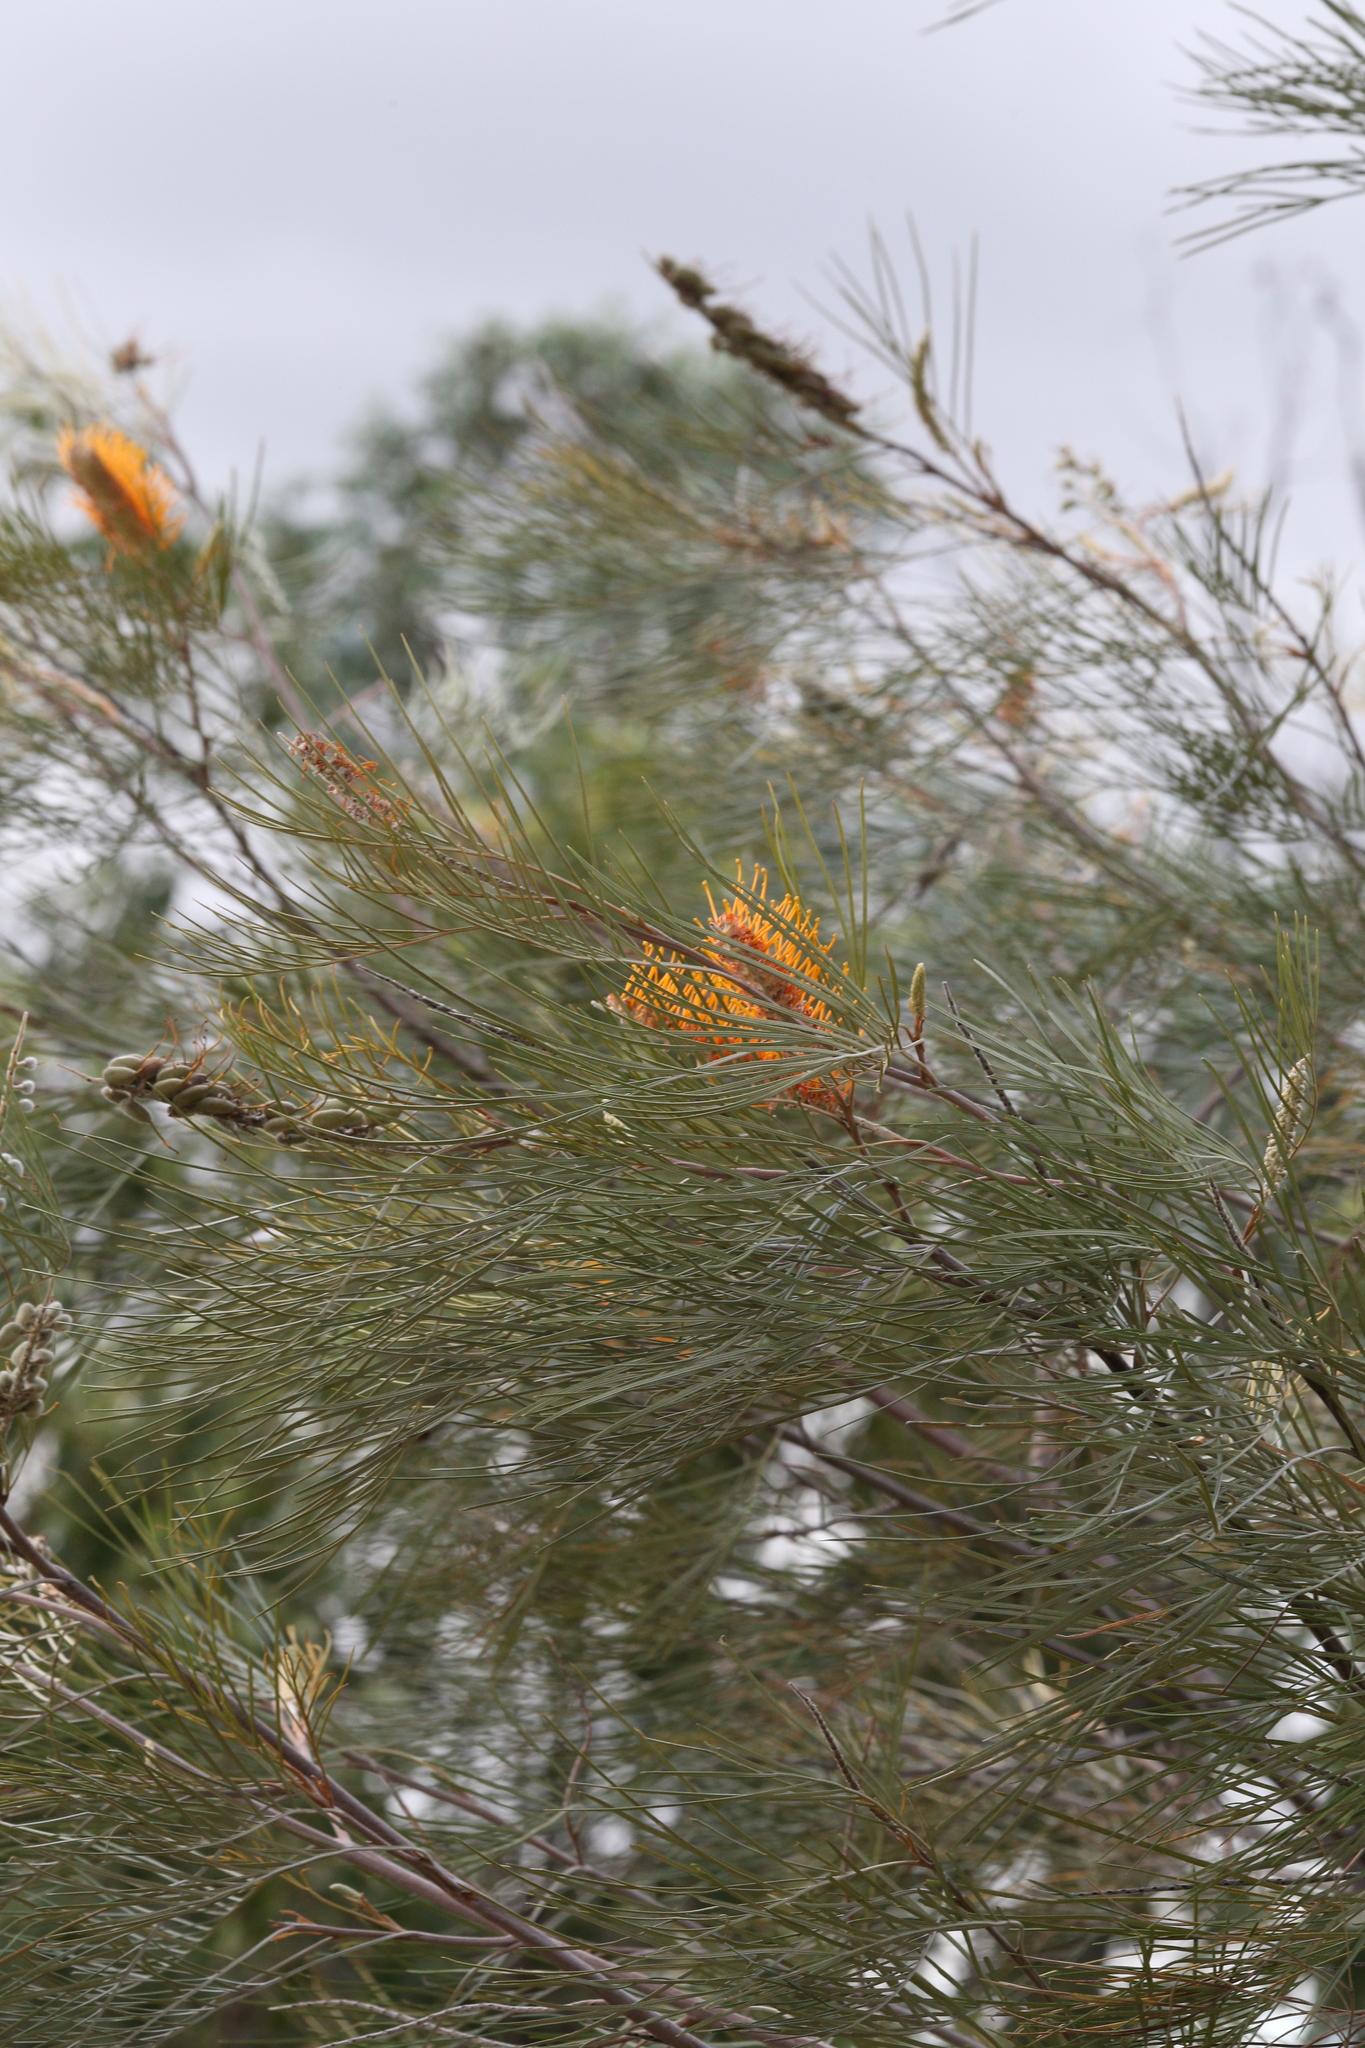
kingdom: Plantae
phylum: Tracheophyta
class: Magnoliopsida
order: Proteales
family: Proteaceae
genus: Grevillea
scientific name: Grevillea pteridifolia
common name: Golden grevillea
